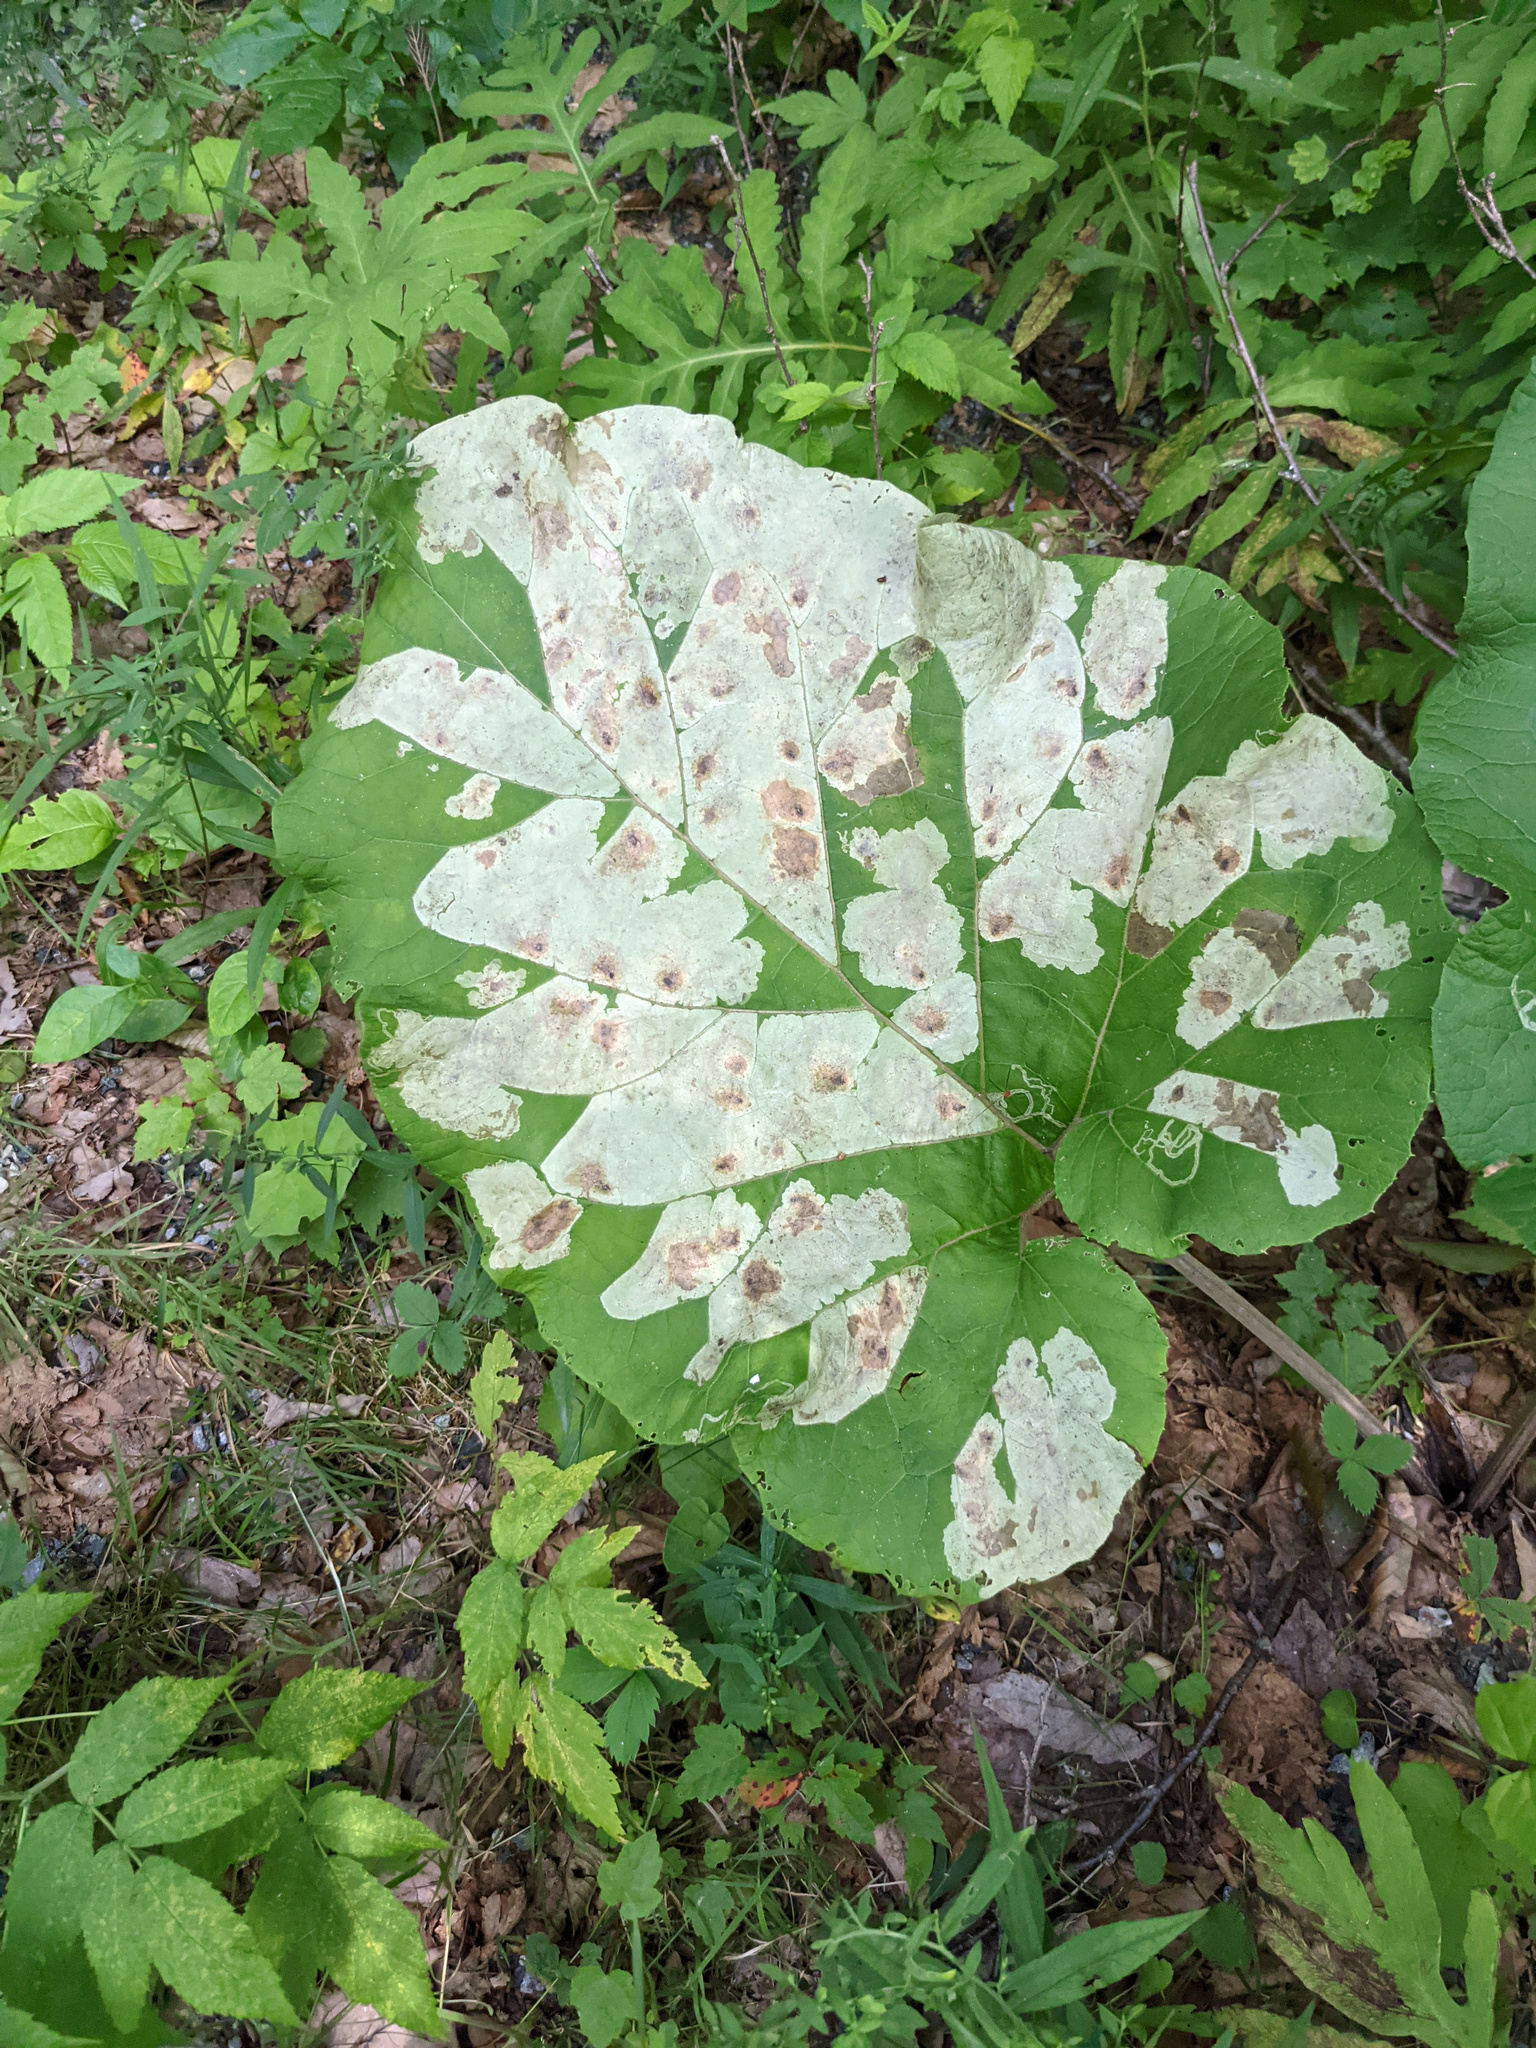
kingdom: Animalia
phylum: Arthropoda
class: Insecta
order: Diptera
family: Agromyzidae
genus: Calycomyza
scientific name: Calycomyza flavinotum
